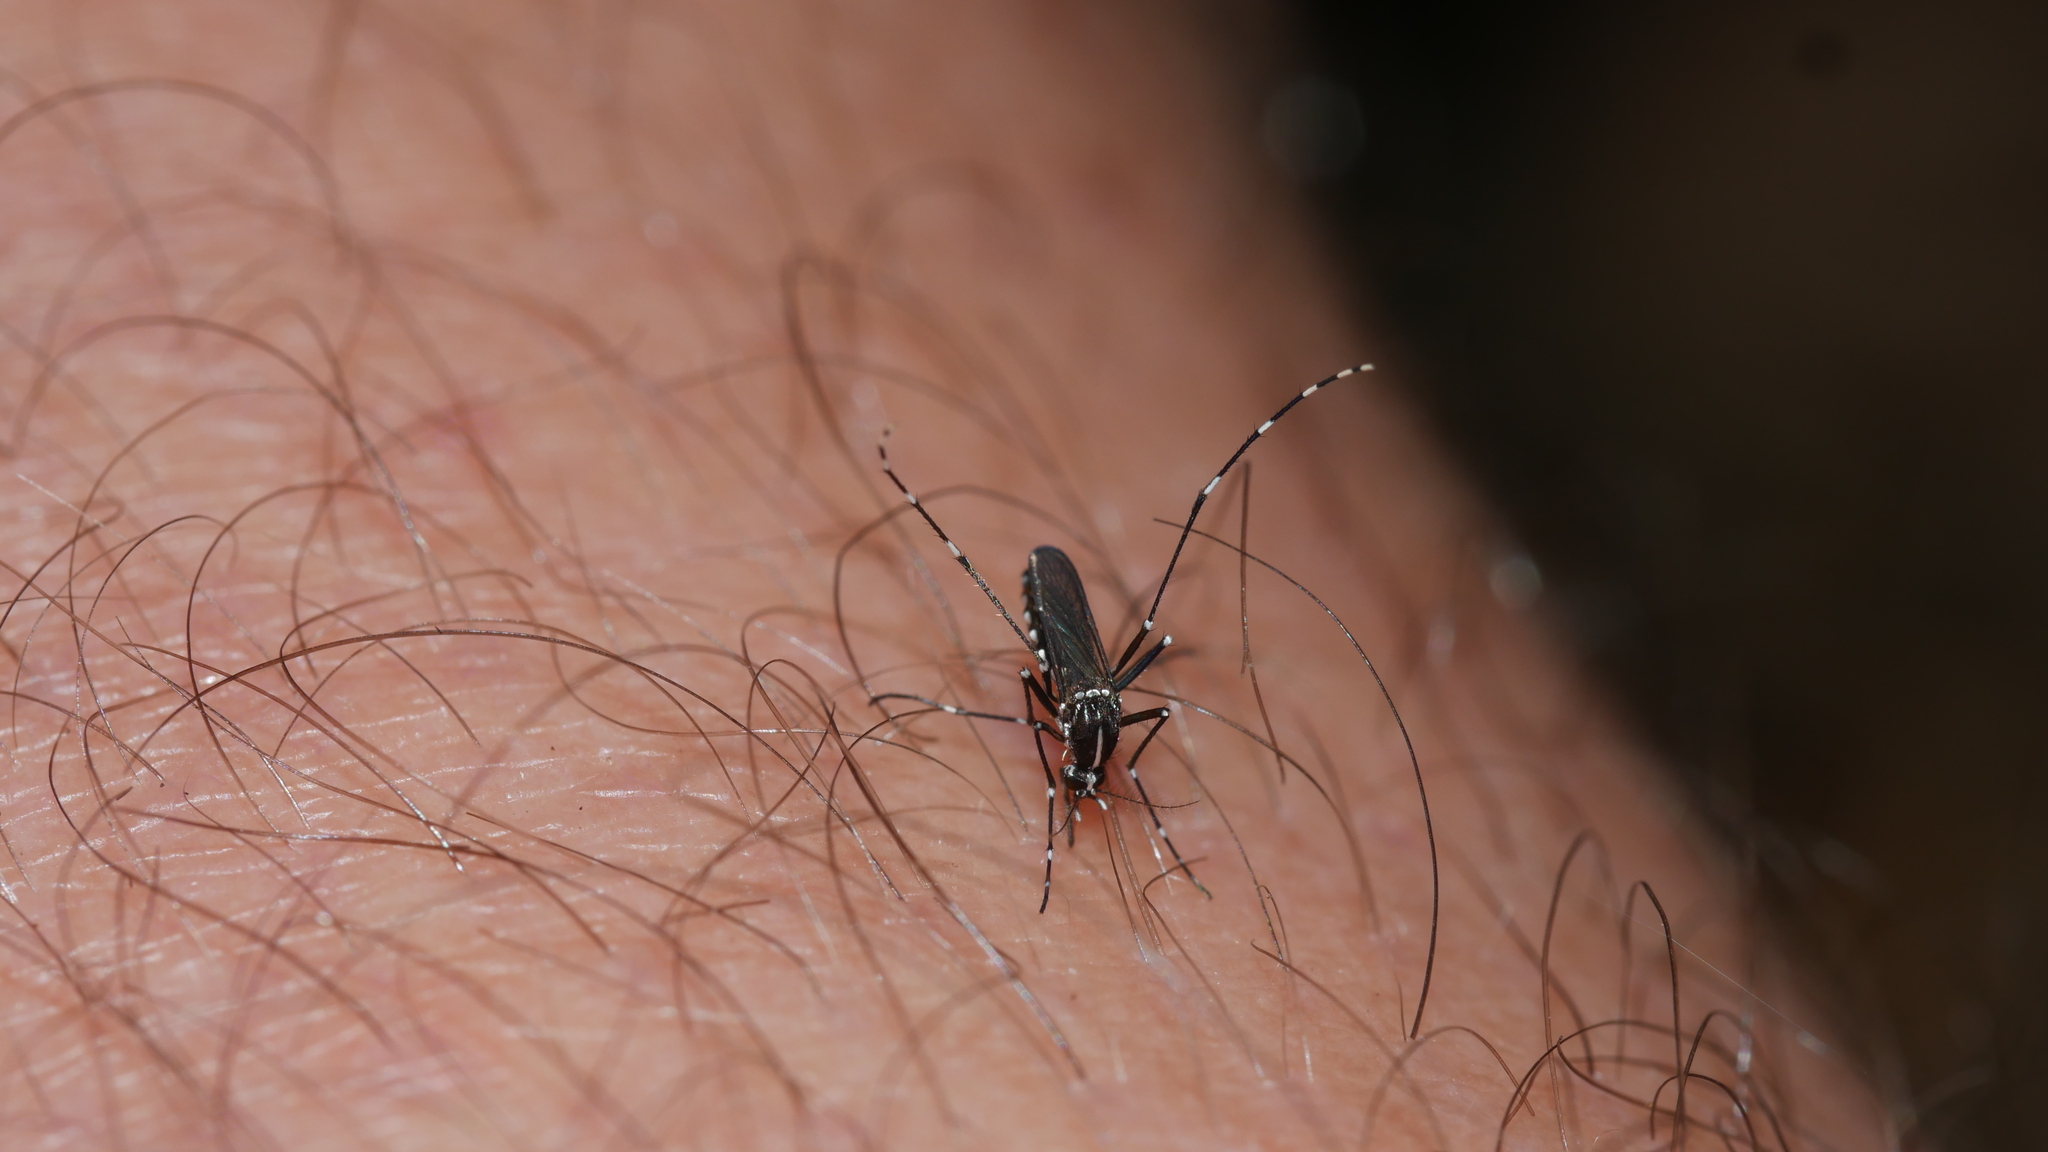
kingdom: Animalia
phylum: Arthropoda
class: Insecta
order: Diptera
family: Culicidae
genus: Aedes
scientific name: Aedes albopictus
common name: Tiger mosquito
